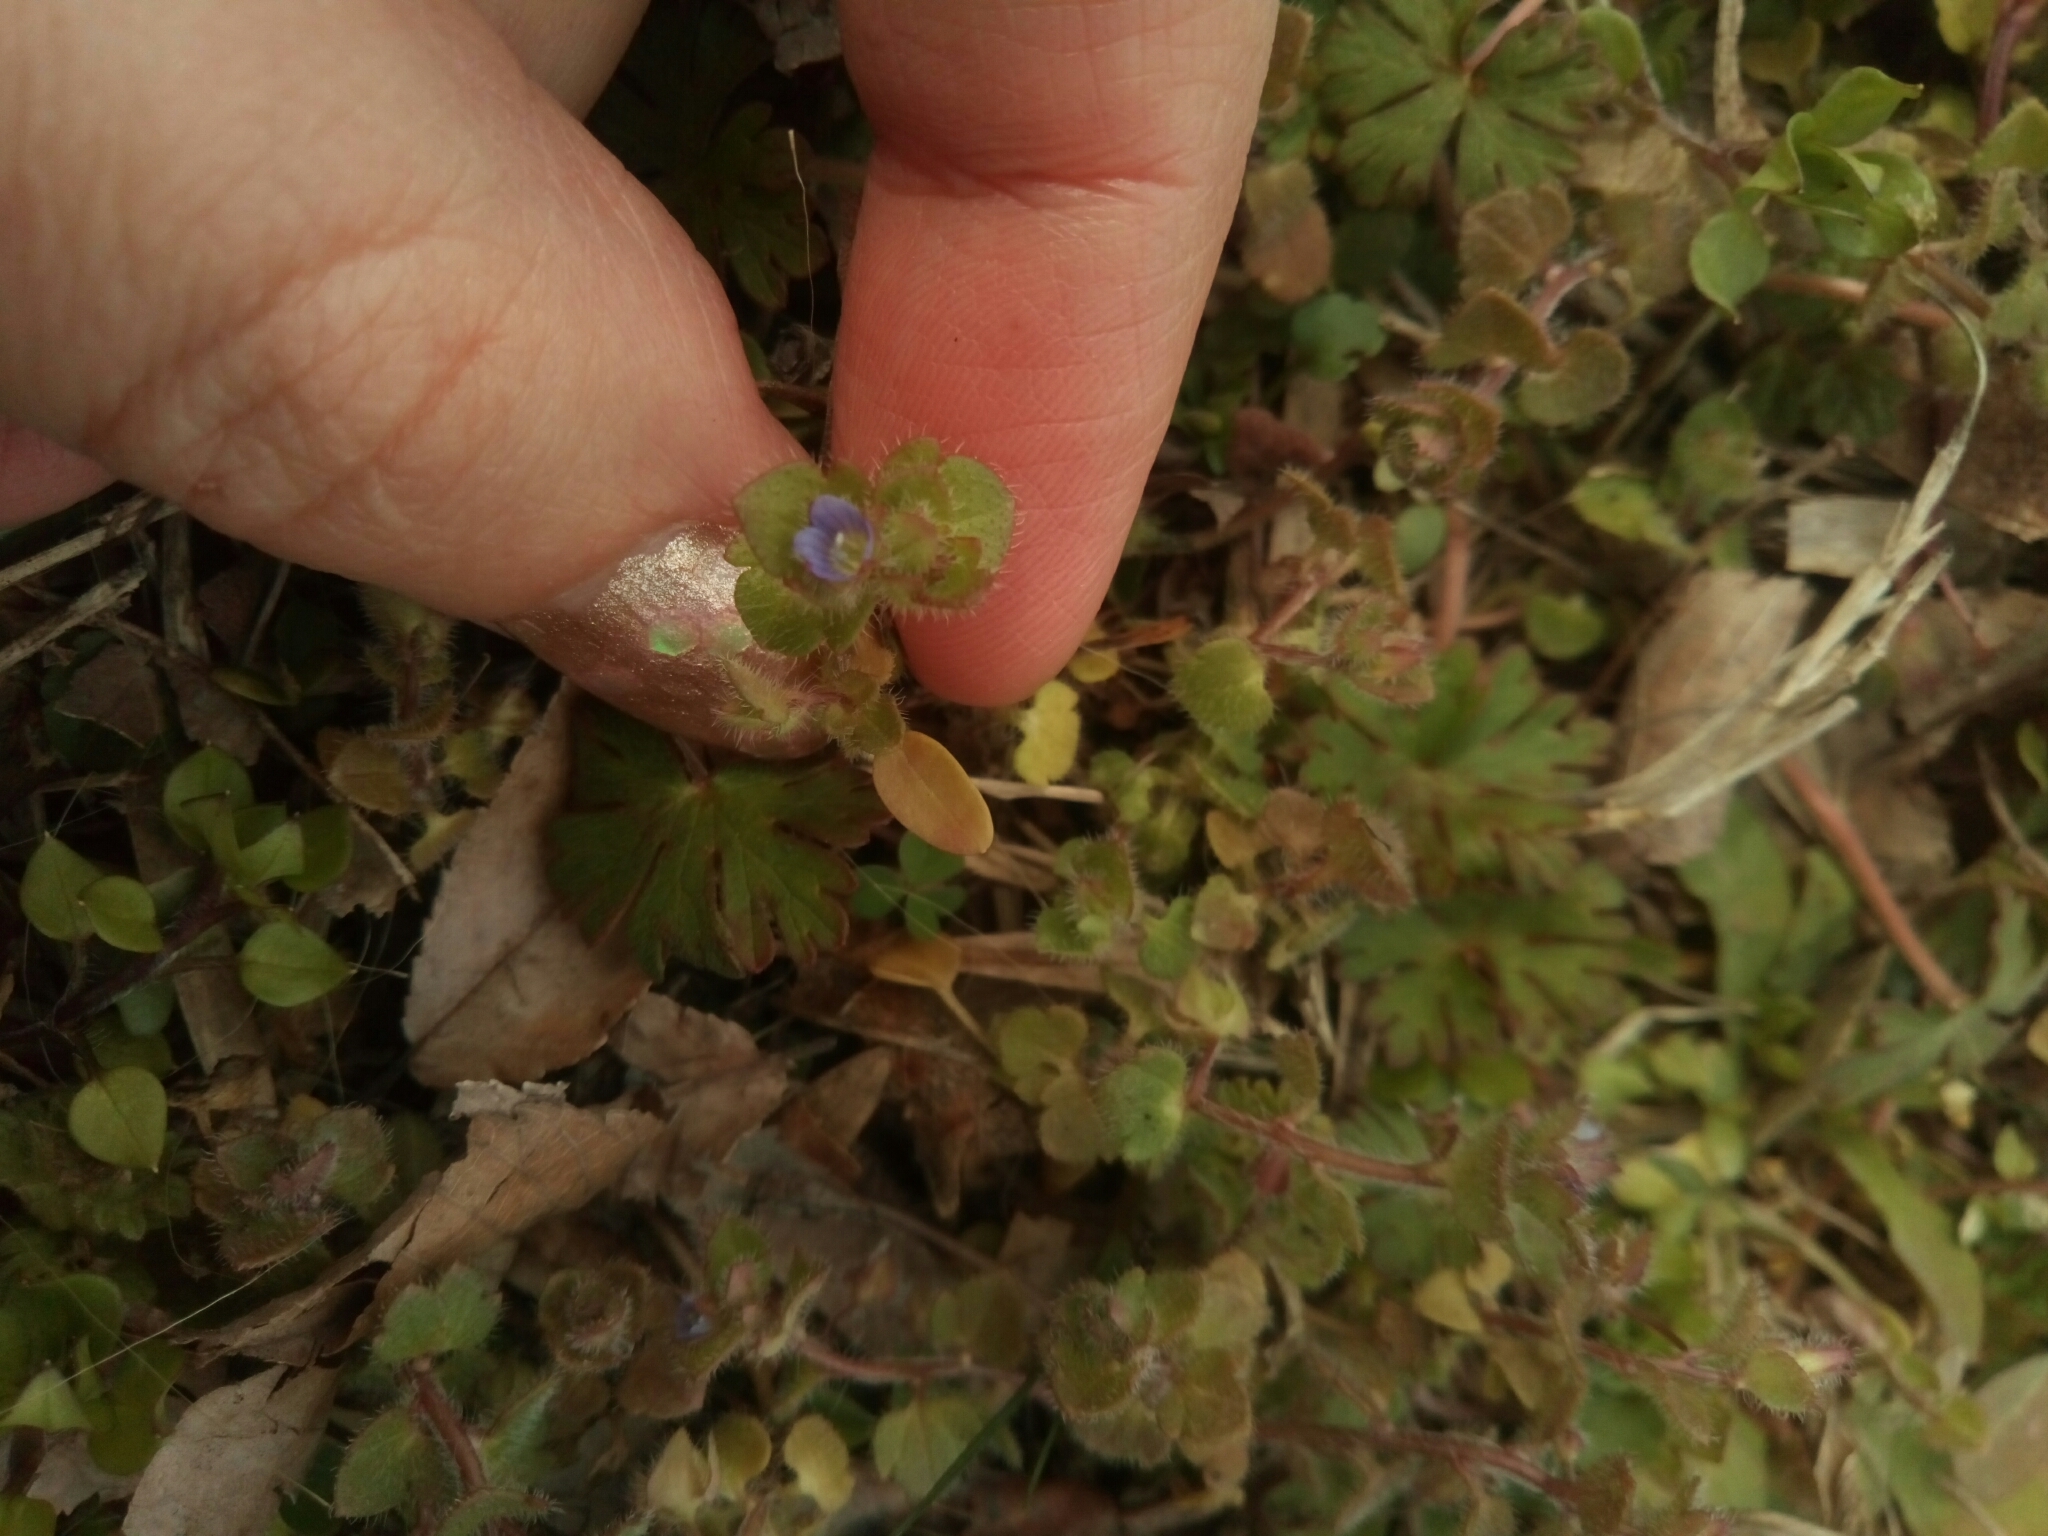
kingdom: Plantae
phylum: Tracheophyta
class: Magnoliopsida
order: Lamiales
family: Plantaginaceae
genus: Veronica
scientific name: Veronica hederifolia
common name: Ivy-leaved speedwell
